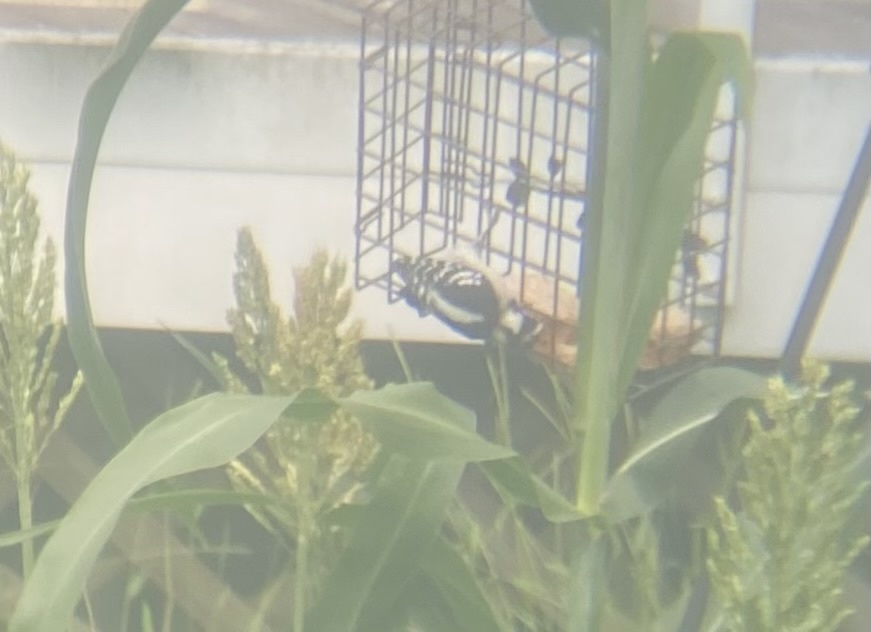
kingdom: Animalia
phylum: Chordata
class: Aves
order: Piciformes
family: Picidae
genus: Dryobates
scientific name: Dryobates pubescens
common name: Downy woodpecker
